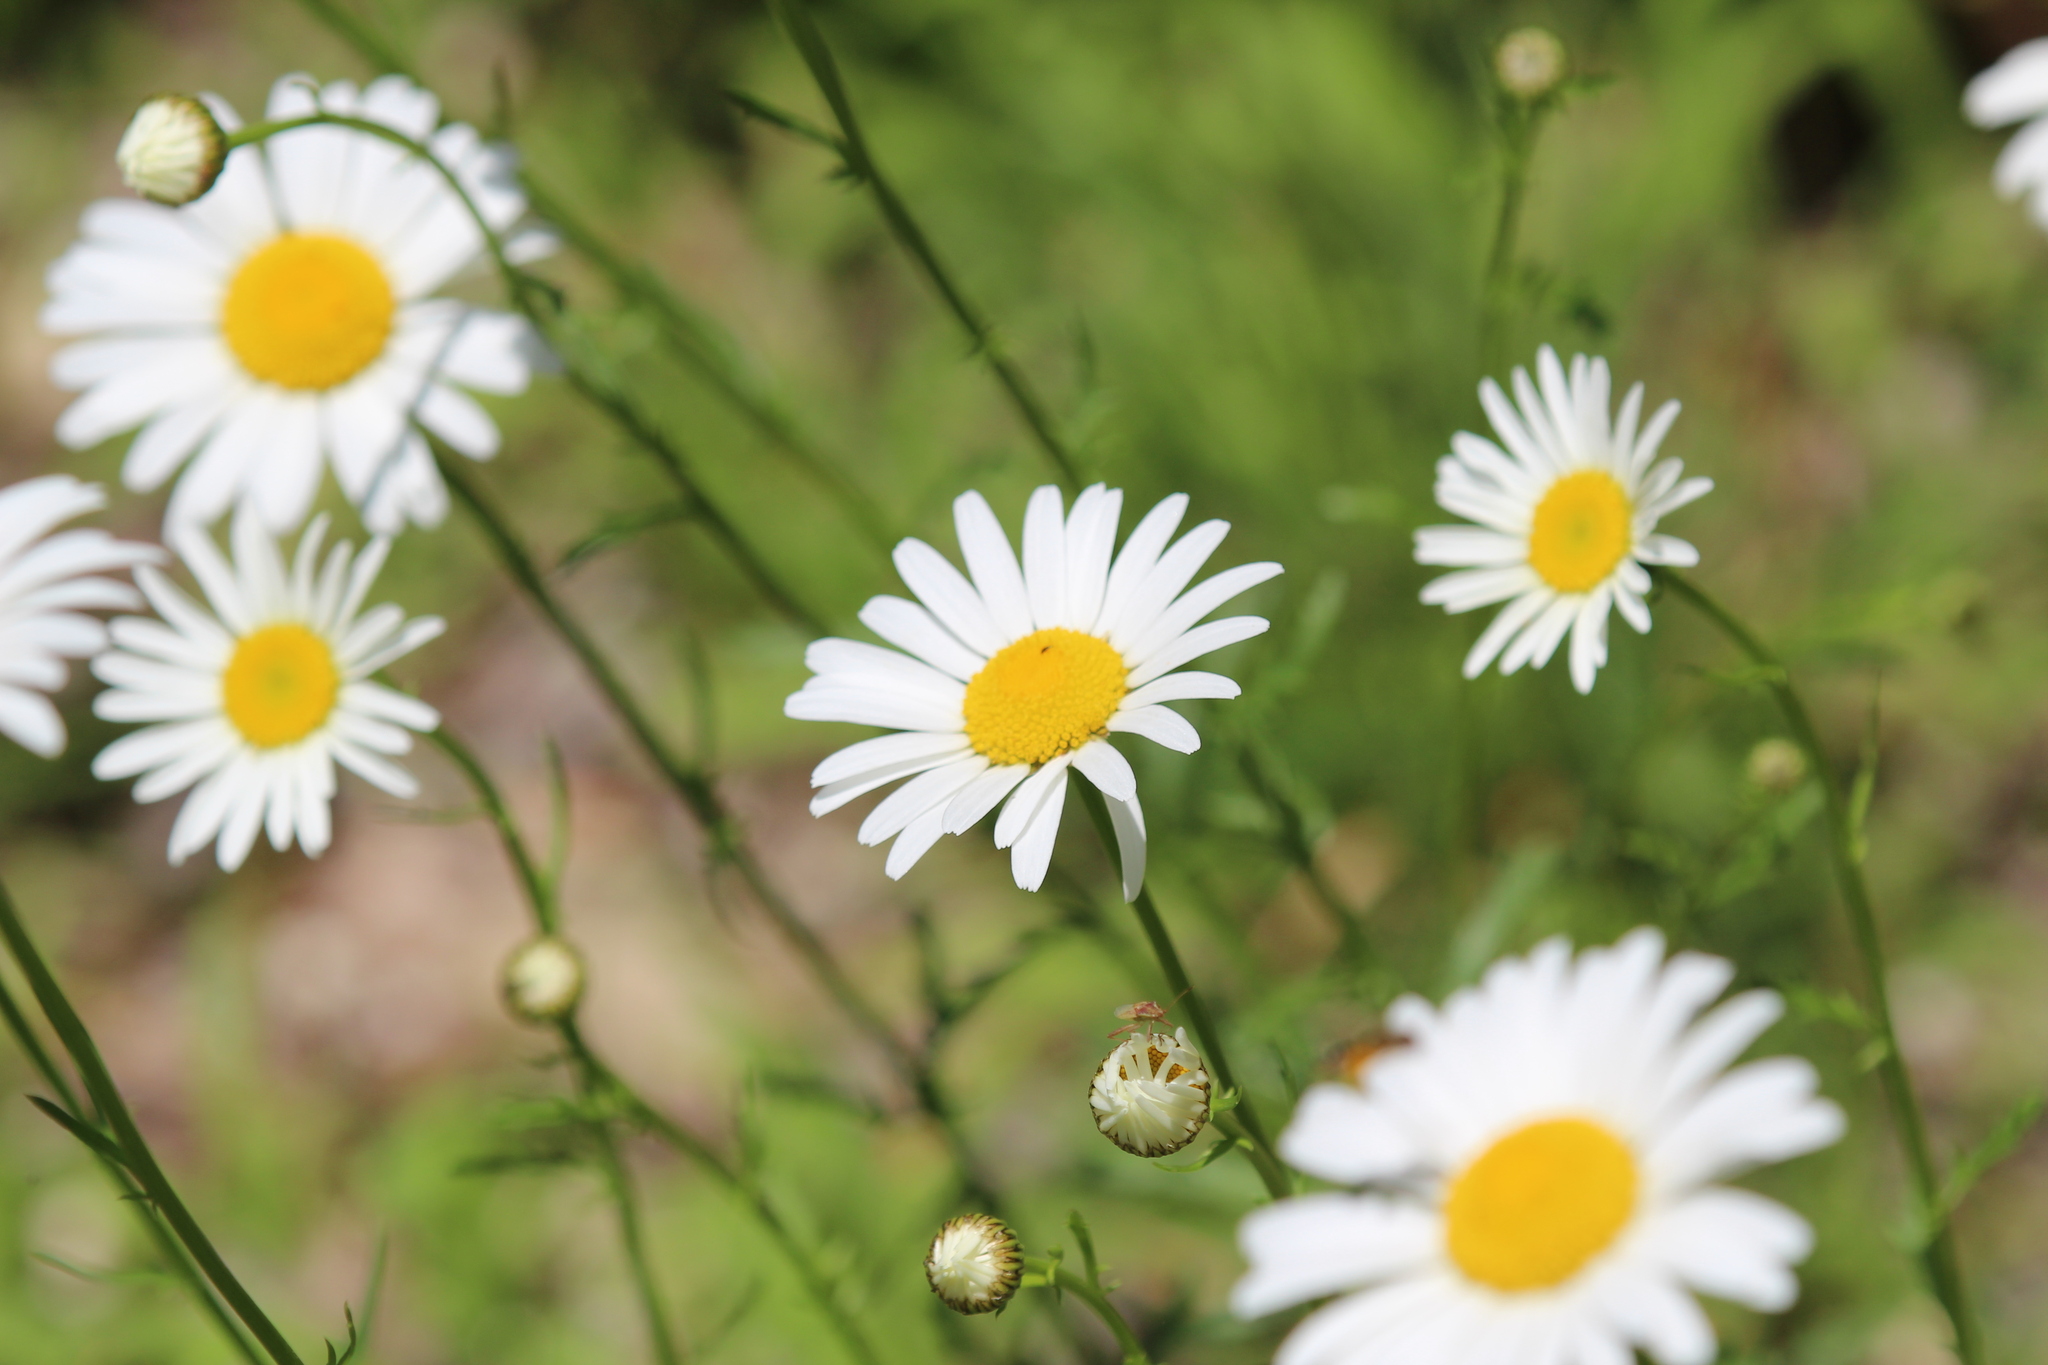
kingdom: Plantae
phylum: Tracheophyta
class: Magnoliopsida
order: Asterales
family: Asteraceae
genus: Leucanthemum
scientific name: Leucanthemum vulgare
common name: Oxeye daisy
